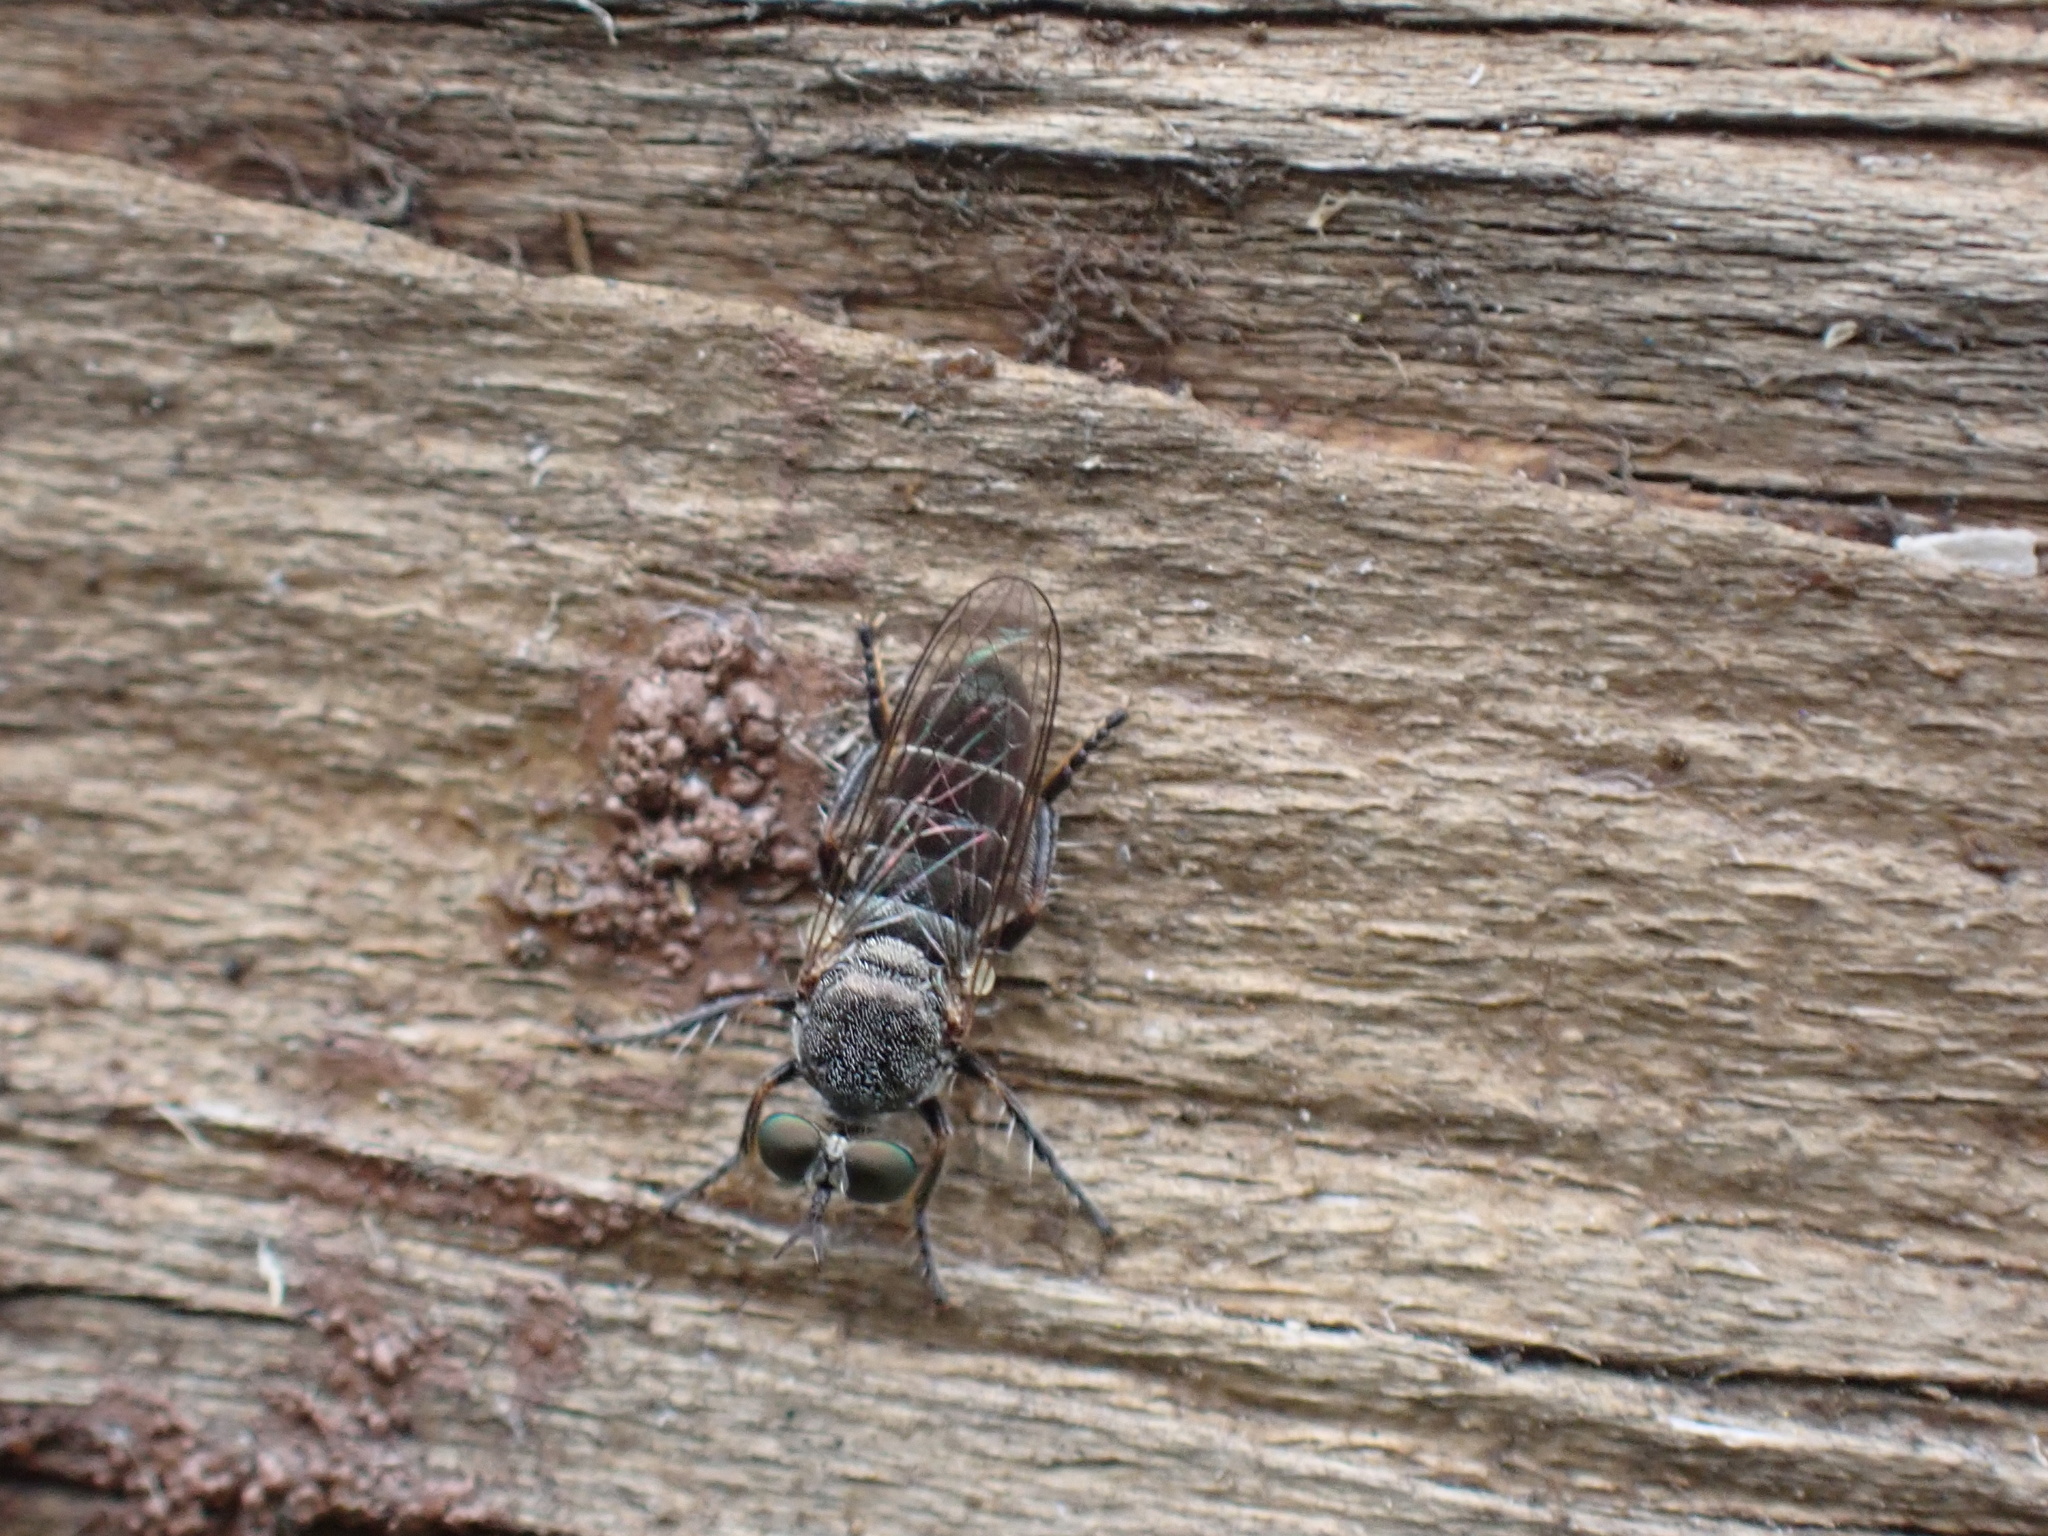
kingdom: Animalia
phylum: Arthropoda
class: Insecta
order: Diptera
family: Asilidae
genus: Atomosia
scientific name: Atomosia puella
